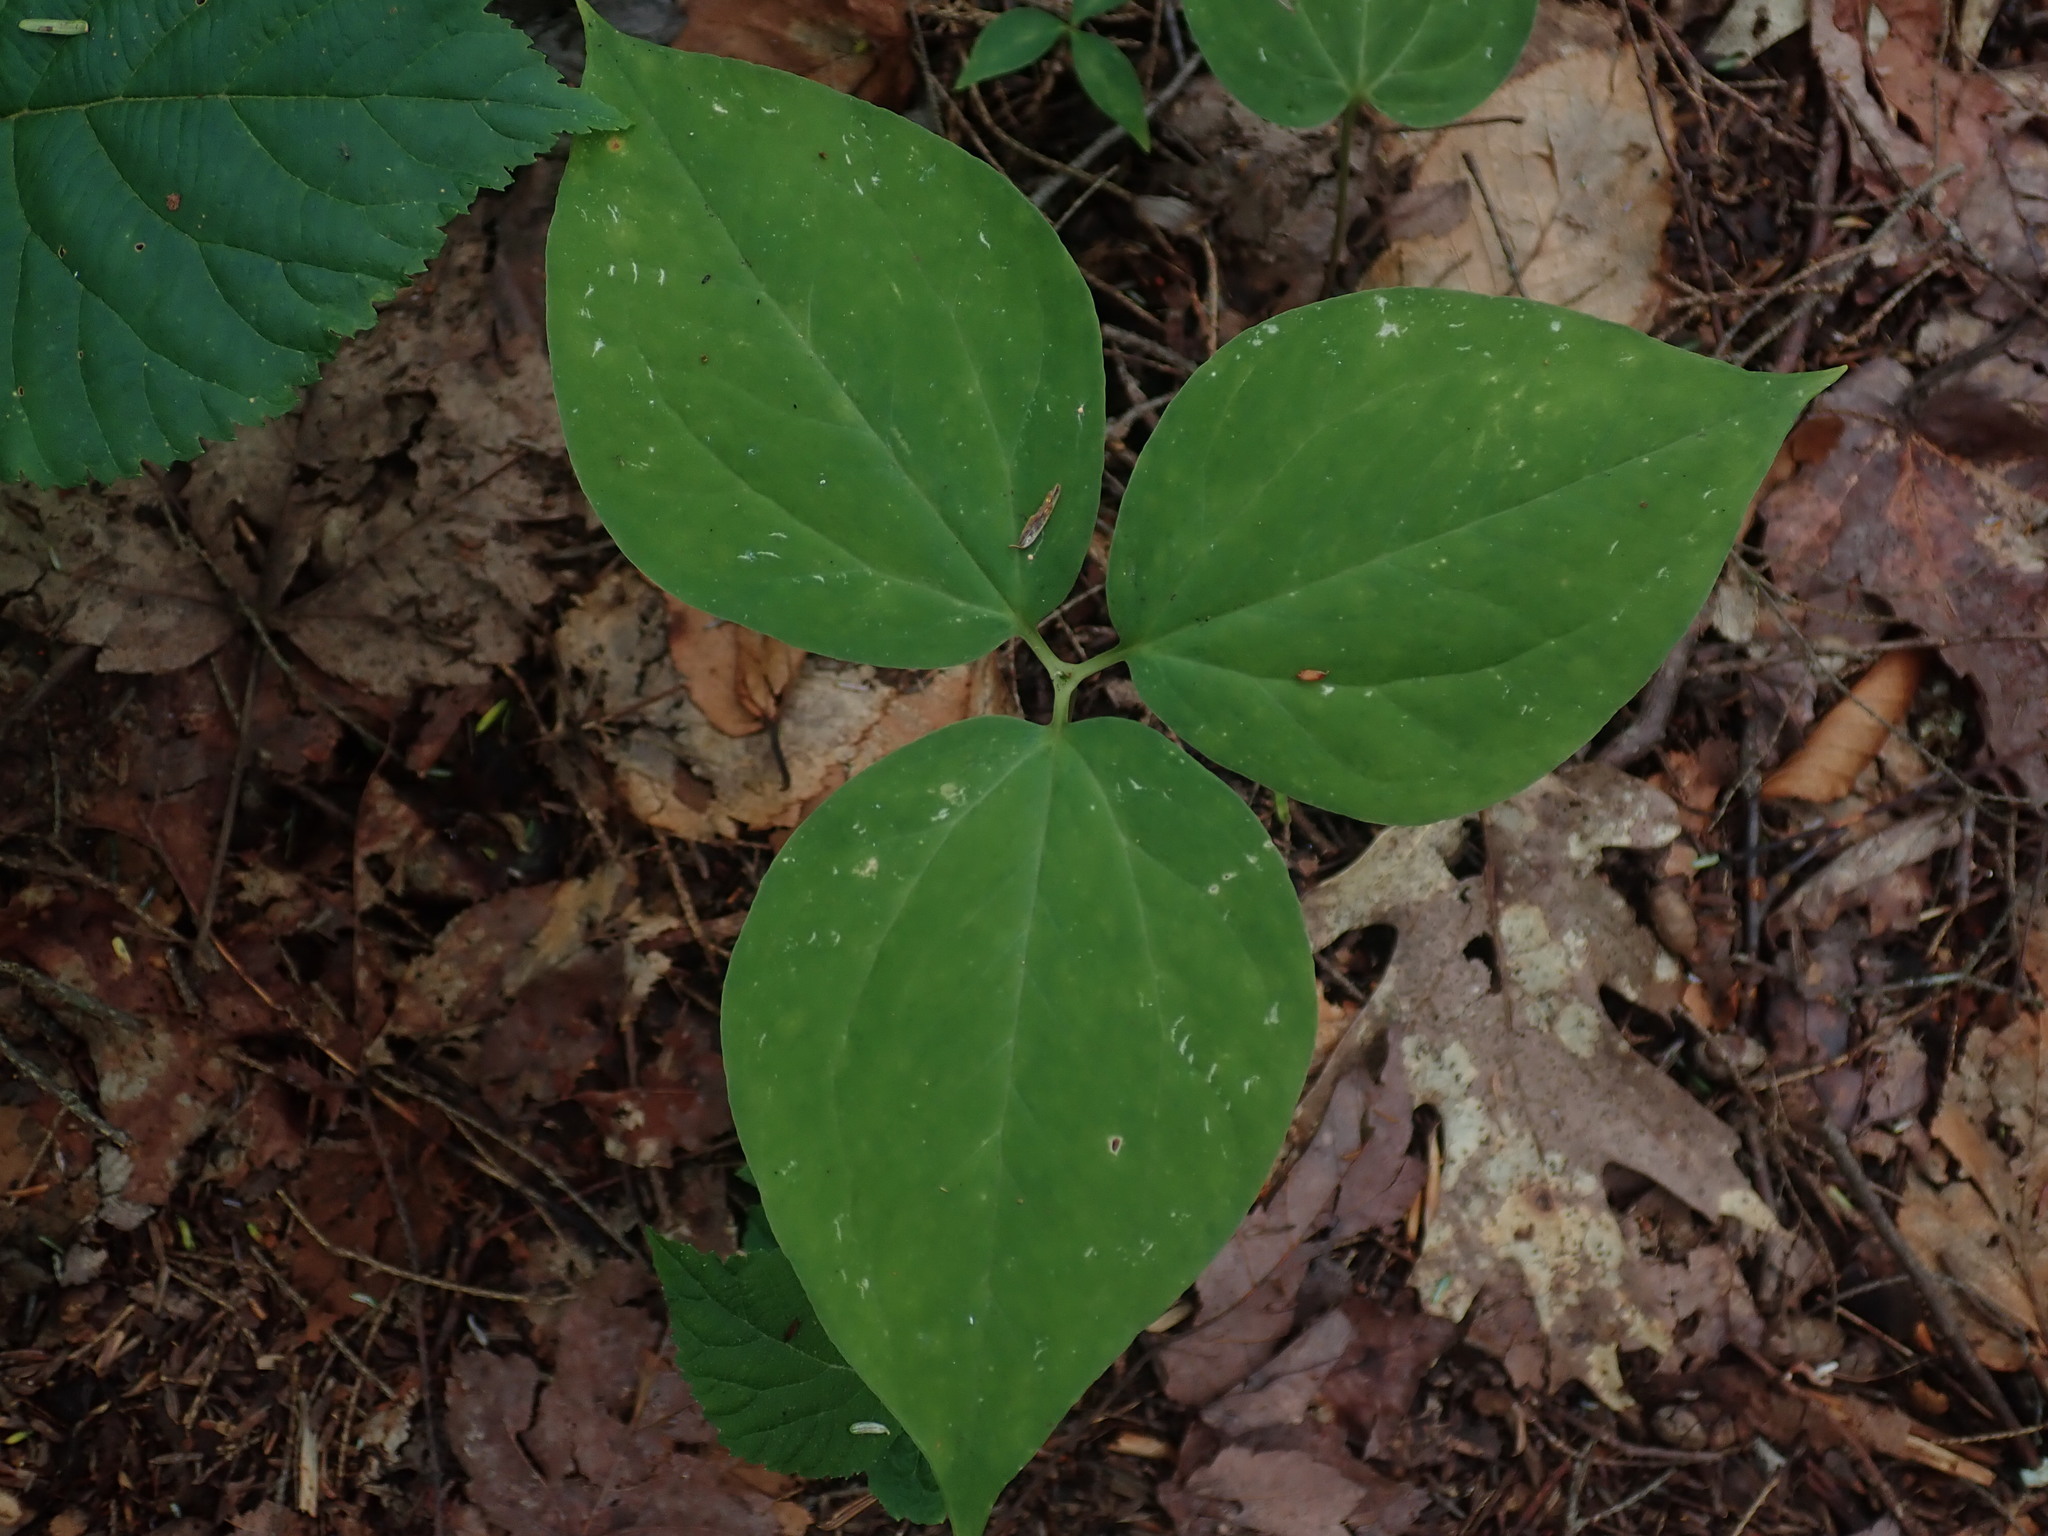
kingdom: Plantae
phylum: Tracheophyta
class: Liliopsida
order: Liliales
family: Melanthiaceae
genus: Trillium
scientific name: Trillium undulatum
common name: Paint trillium
